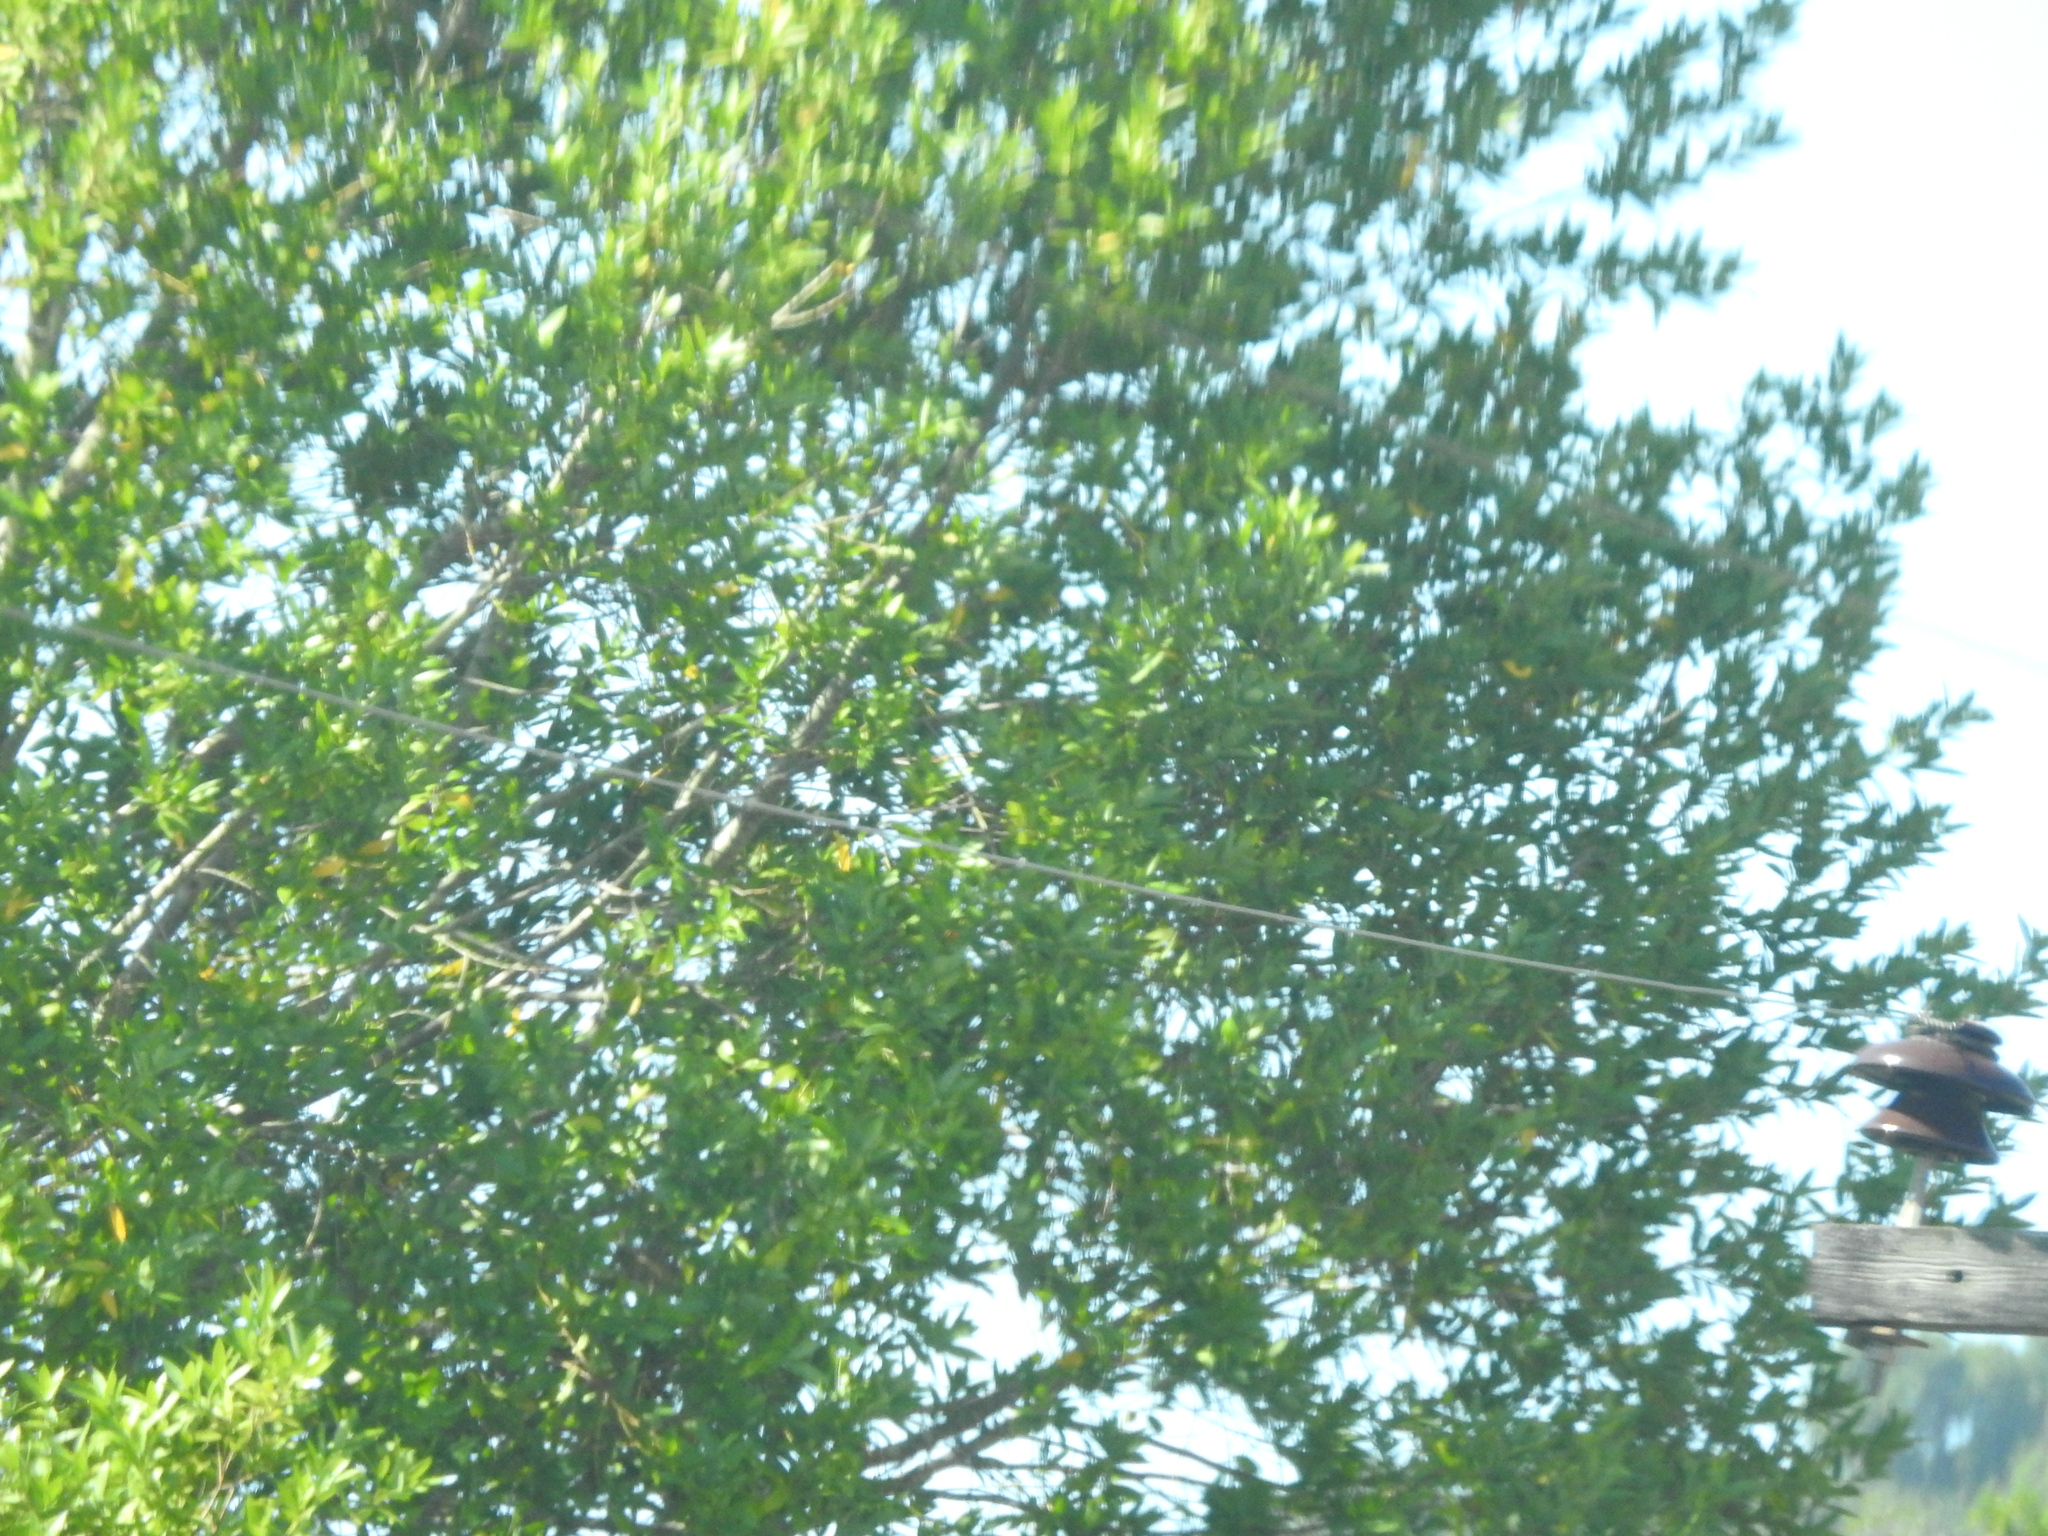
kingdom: Plantae
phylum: Tracheophyta
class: Magnoliopsida
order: Laurales
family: Lauraceae
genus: Umbellularia
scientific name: Umbellularia californica
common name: California bay
